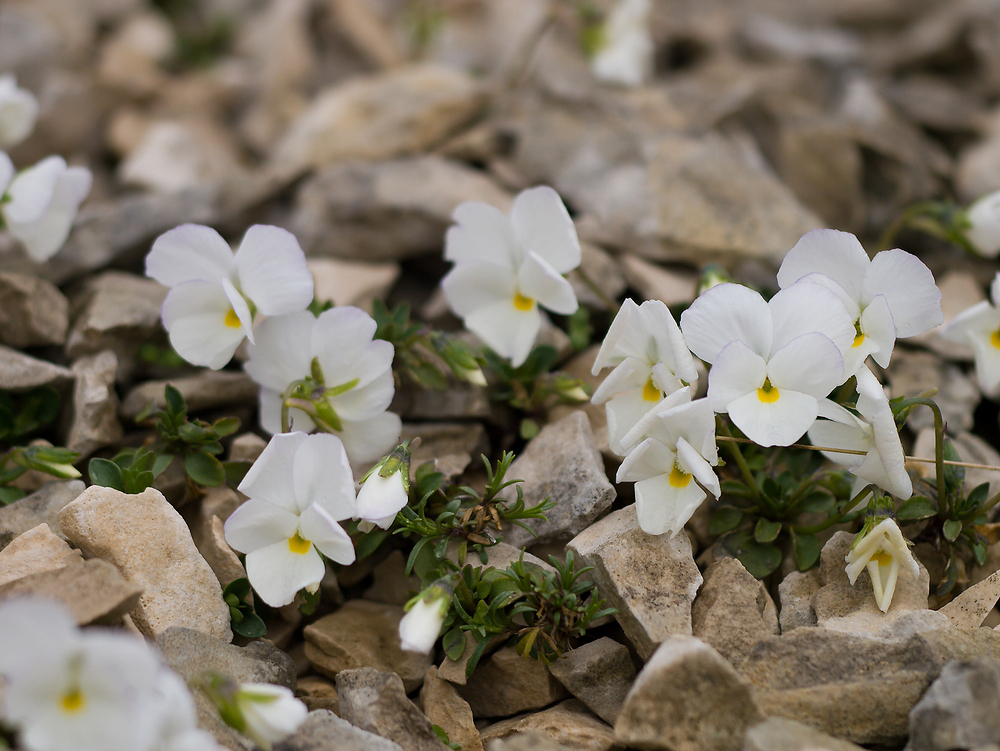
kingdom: Plantae
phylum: Tracheophyta
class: Magnoliopsida
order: Malpighiales
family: Violaceae
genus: Viola
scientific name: Viola cenisia
